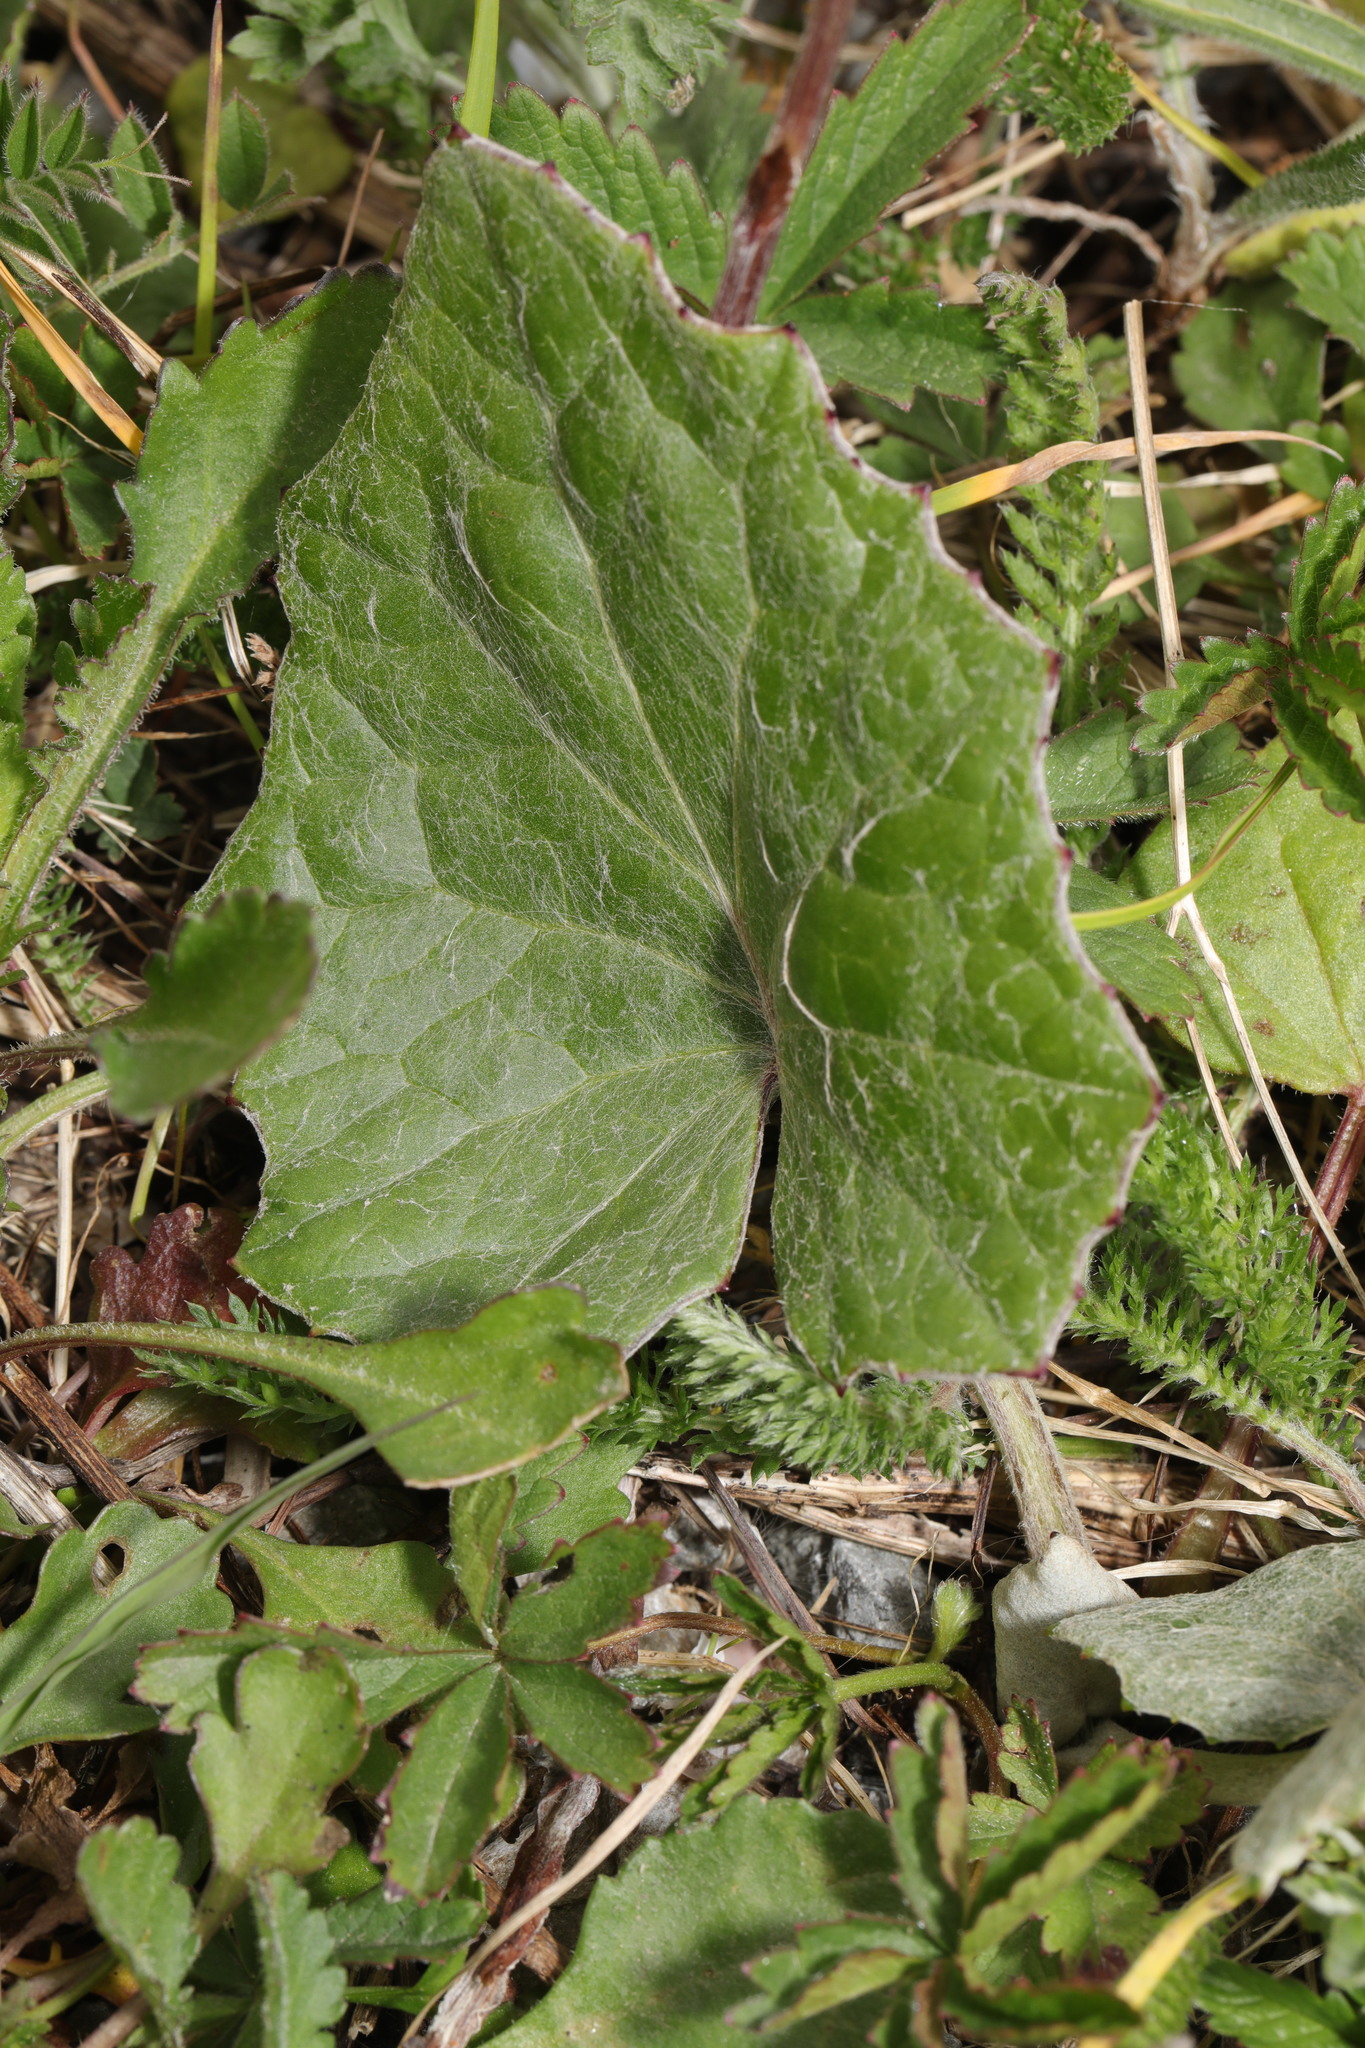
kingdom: Plantae
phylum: Tracheophyta
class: Magnoliopsida
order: Asterales
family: Asteraceae
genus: Tussilago
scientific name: Tussilago farfara
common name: Coltsfoot
